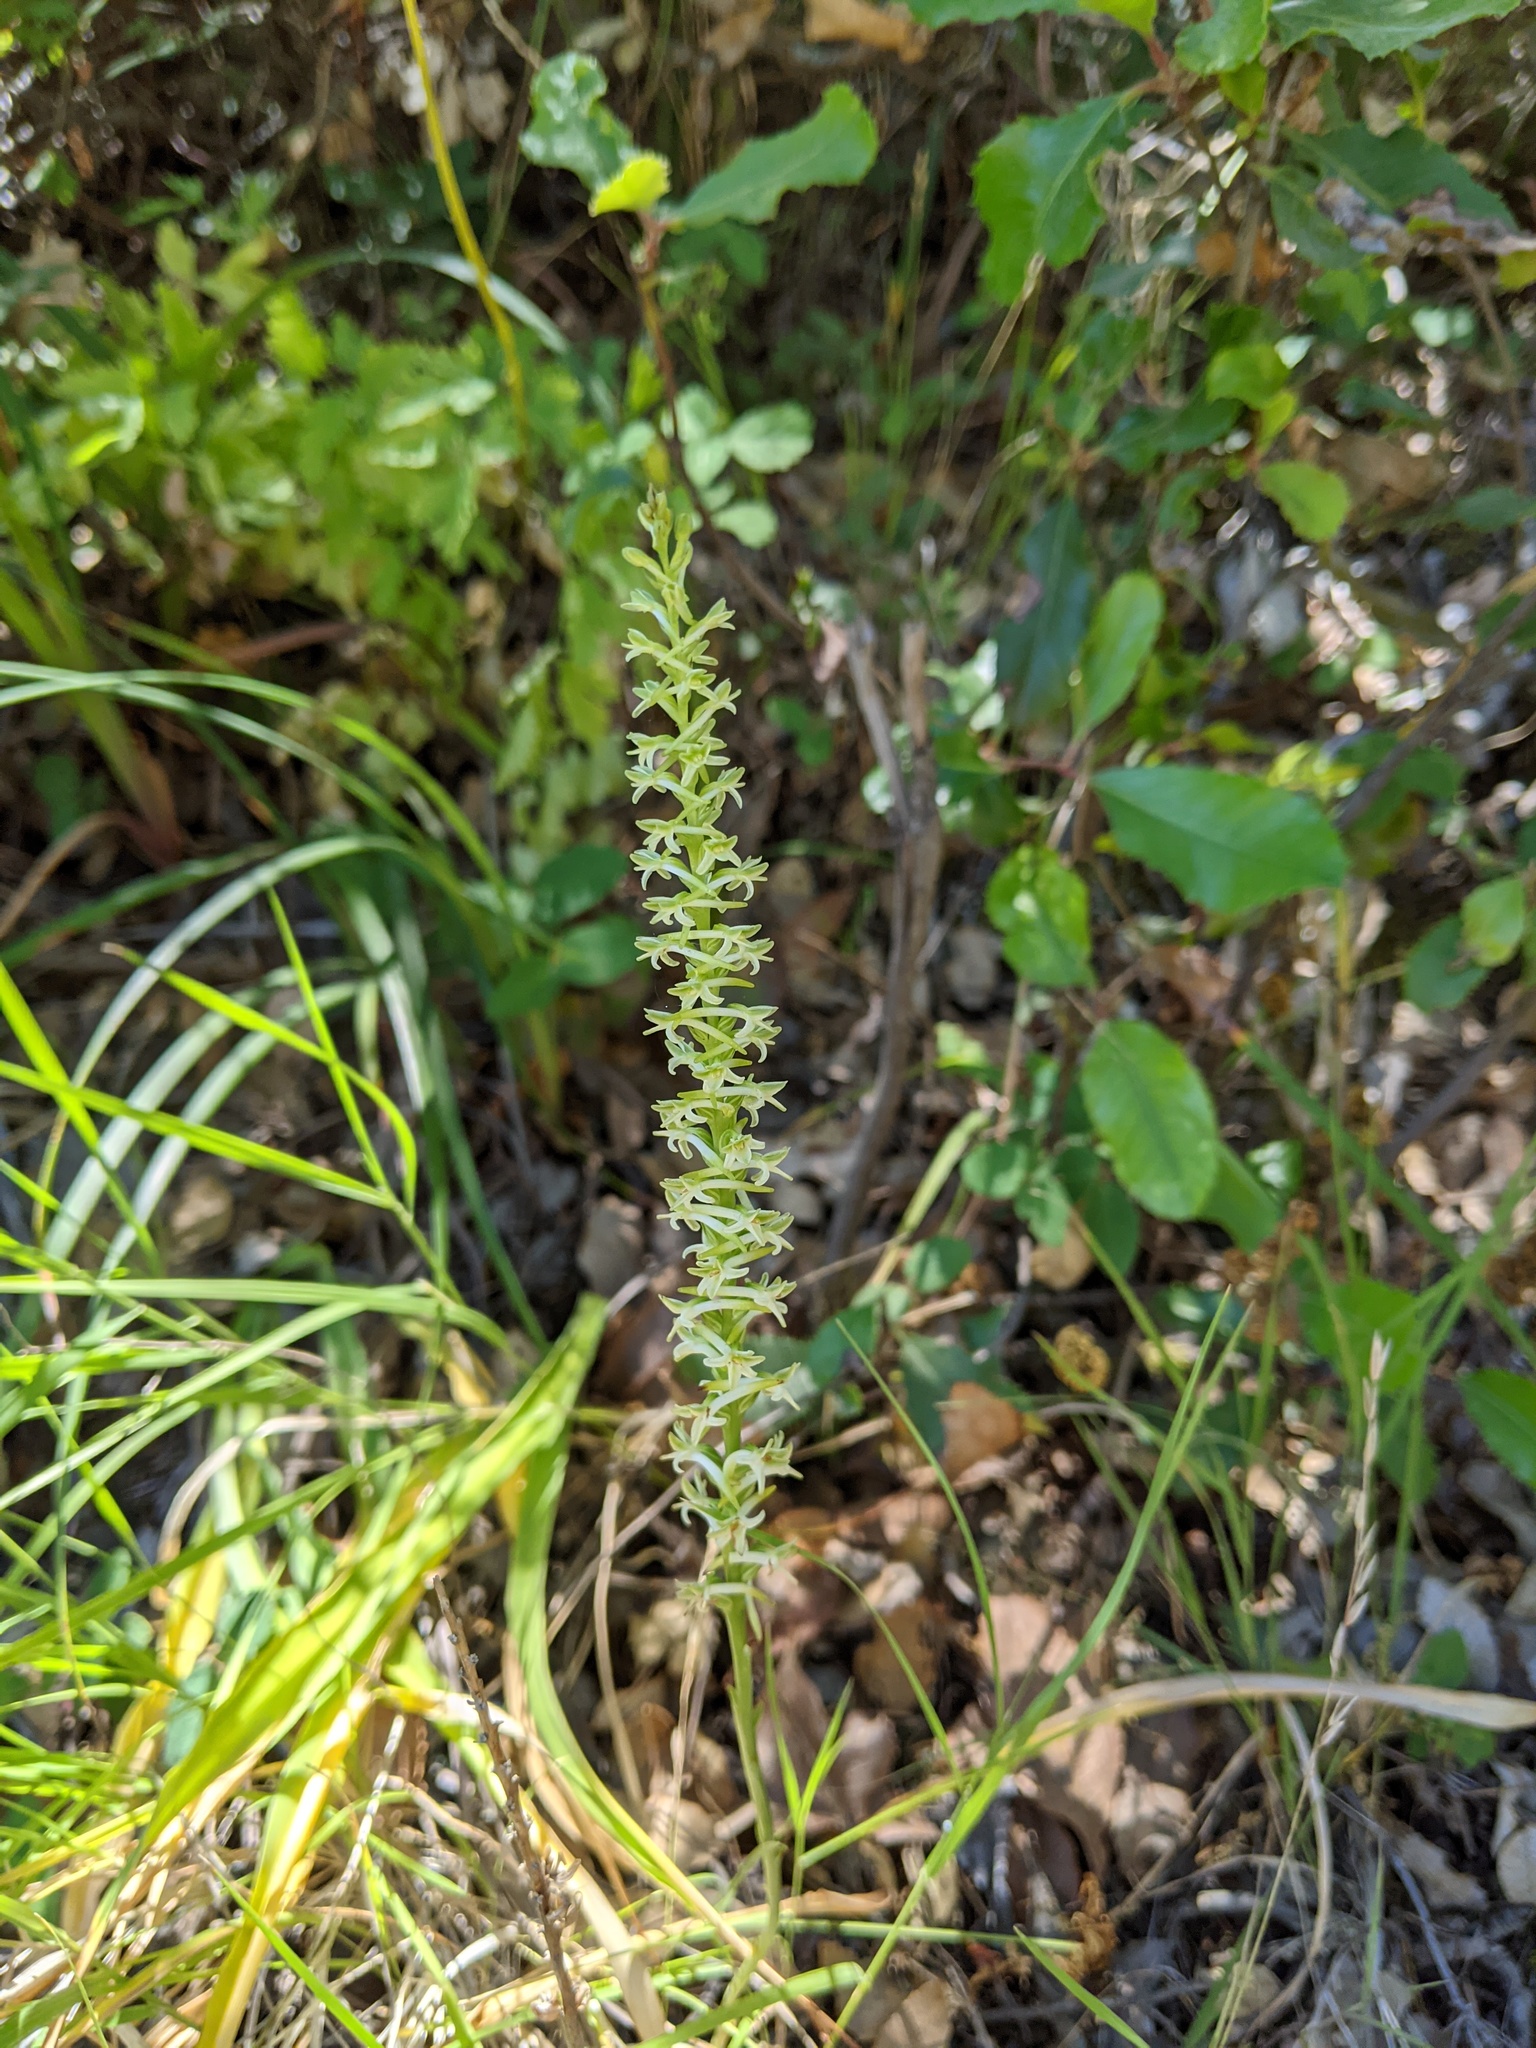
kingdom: Plantae
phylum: Tracheophyta
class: Liliopsida
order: Asparagales
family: Orchidaceae
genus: Platanthera
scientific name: Platanthera transversa
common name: Royal rein orchid
